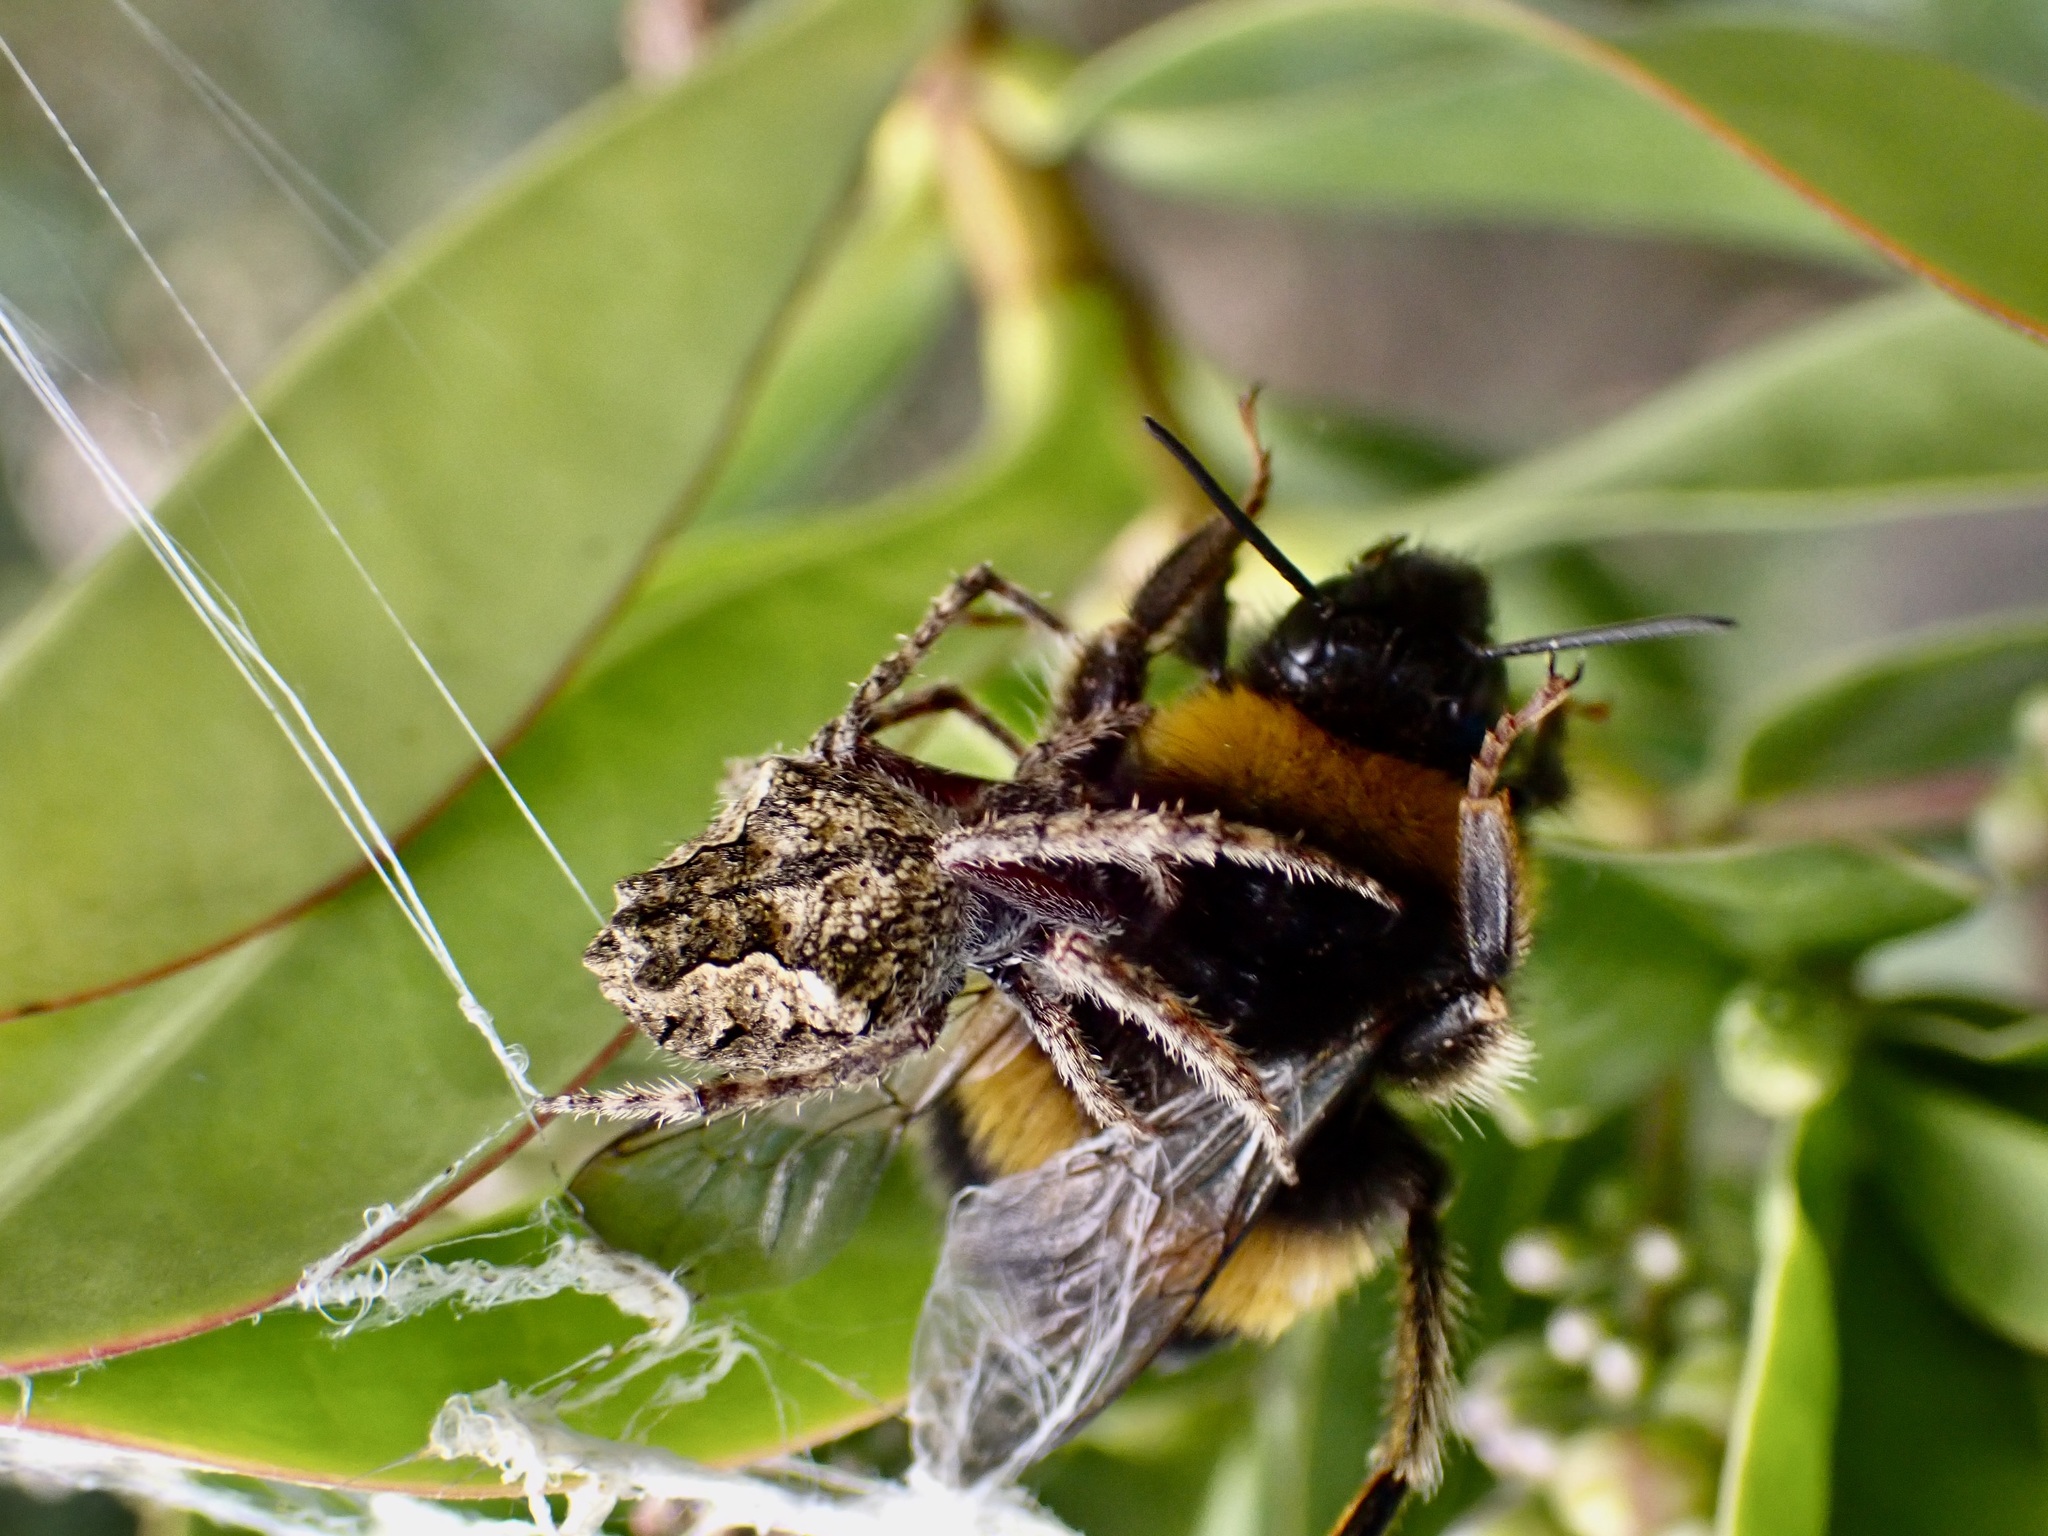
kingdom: Animalia
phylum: Arthropoda
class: Arachnida
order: Araneae
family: Araneidae
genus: Eriophora
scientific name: Eriophora pustulosa
